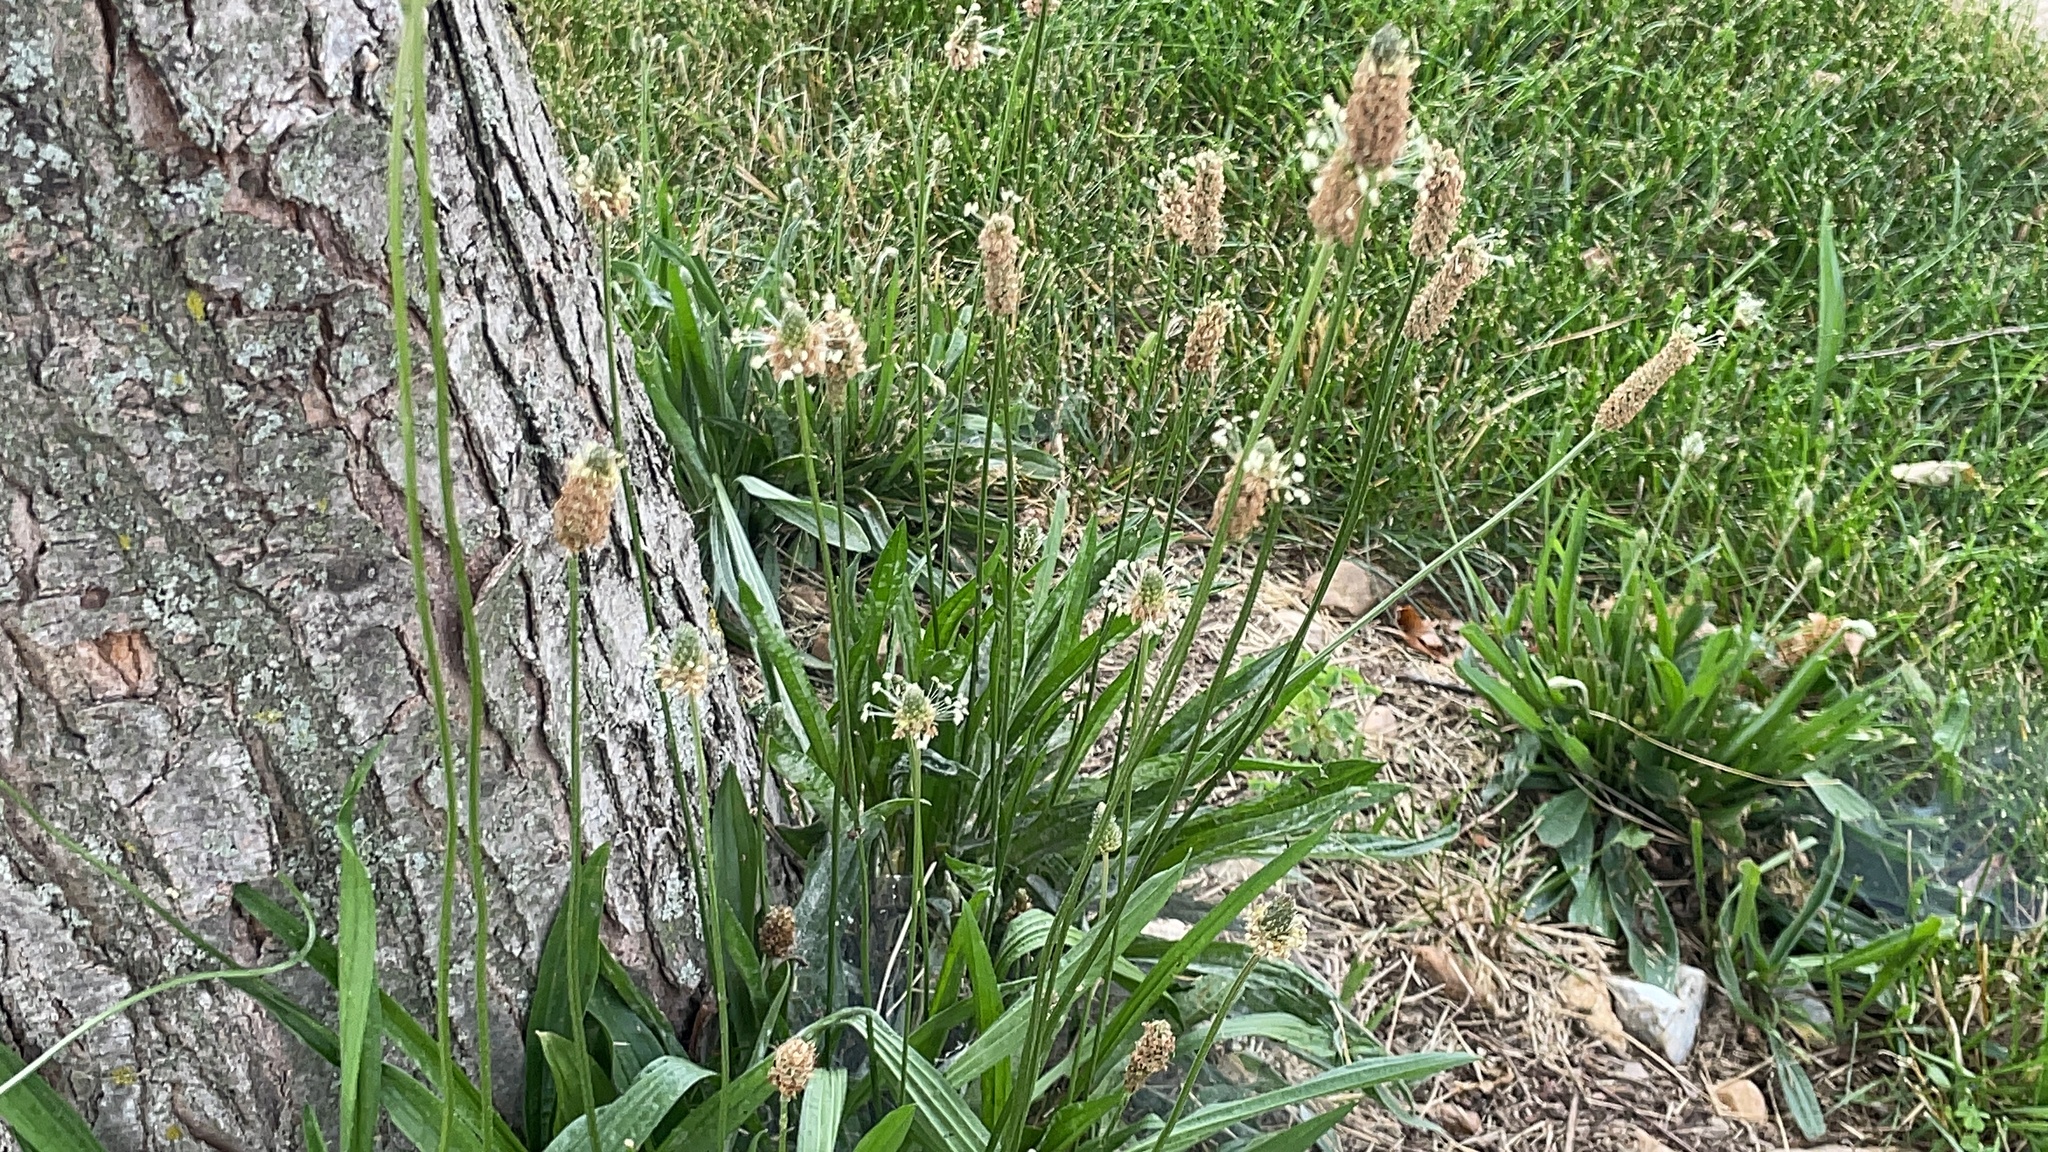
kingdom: Plantae
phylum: Tracheophyta
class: Magnoliopsida
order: Lamiales
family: Plantaginaceae
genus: Plantago
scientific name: Plantago lanceolata
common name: Ribwort plantain
